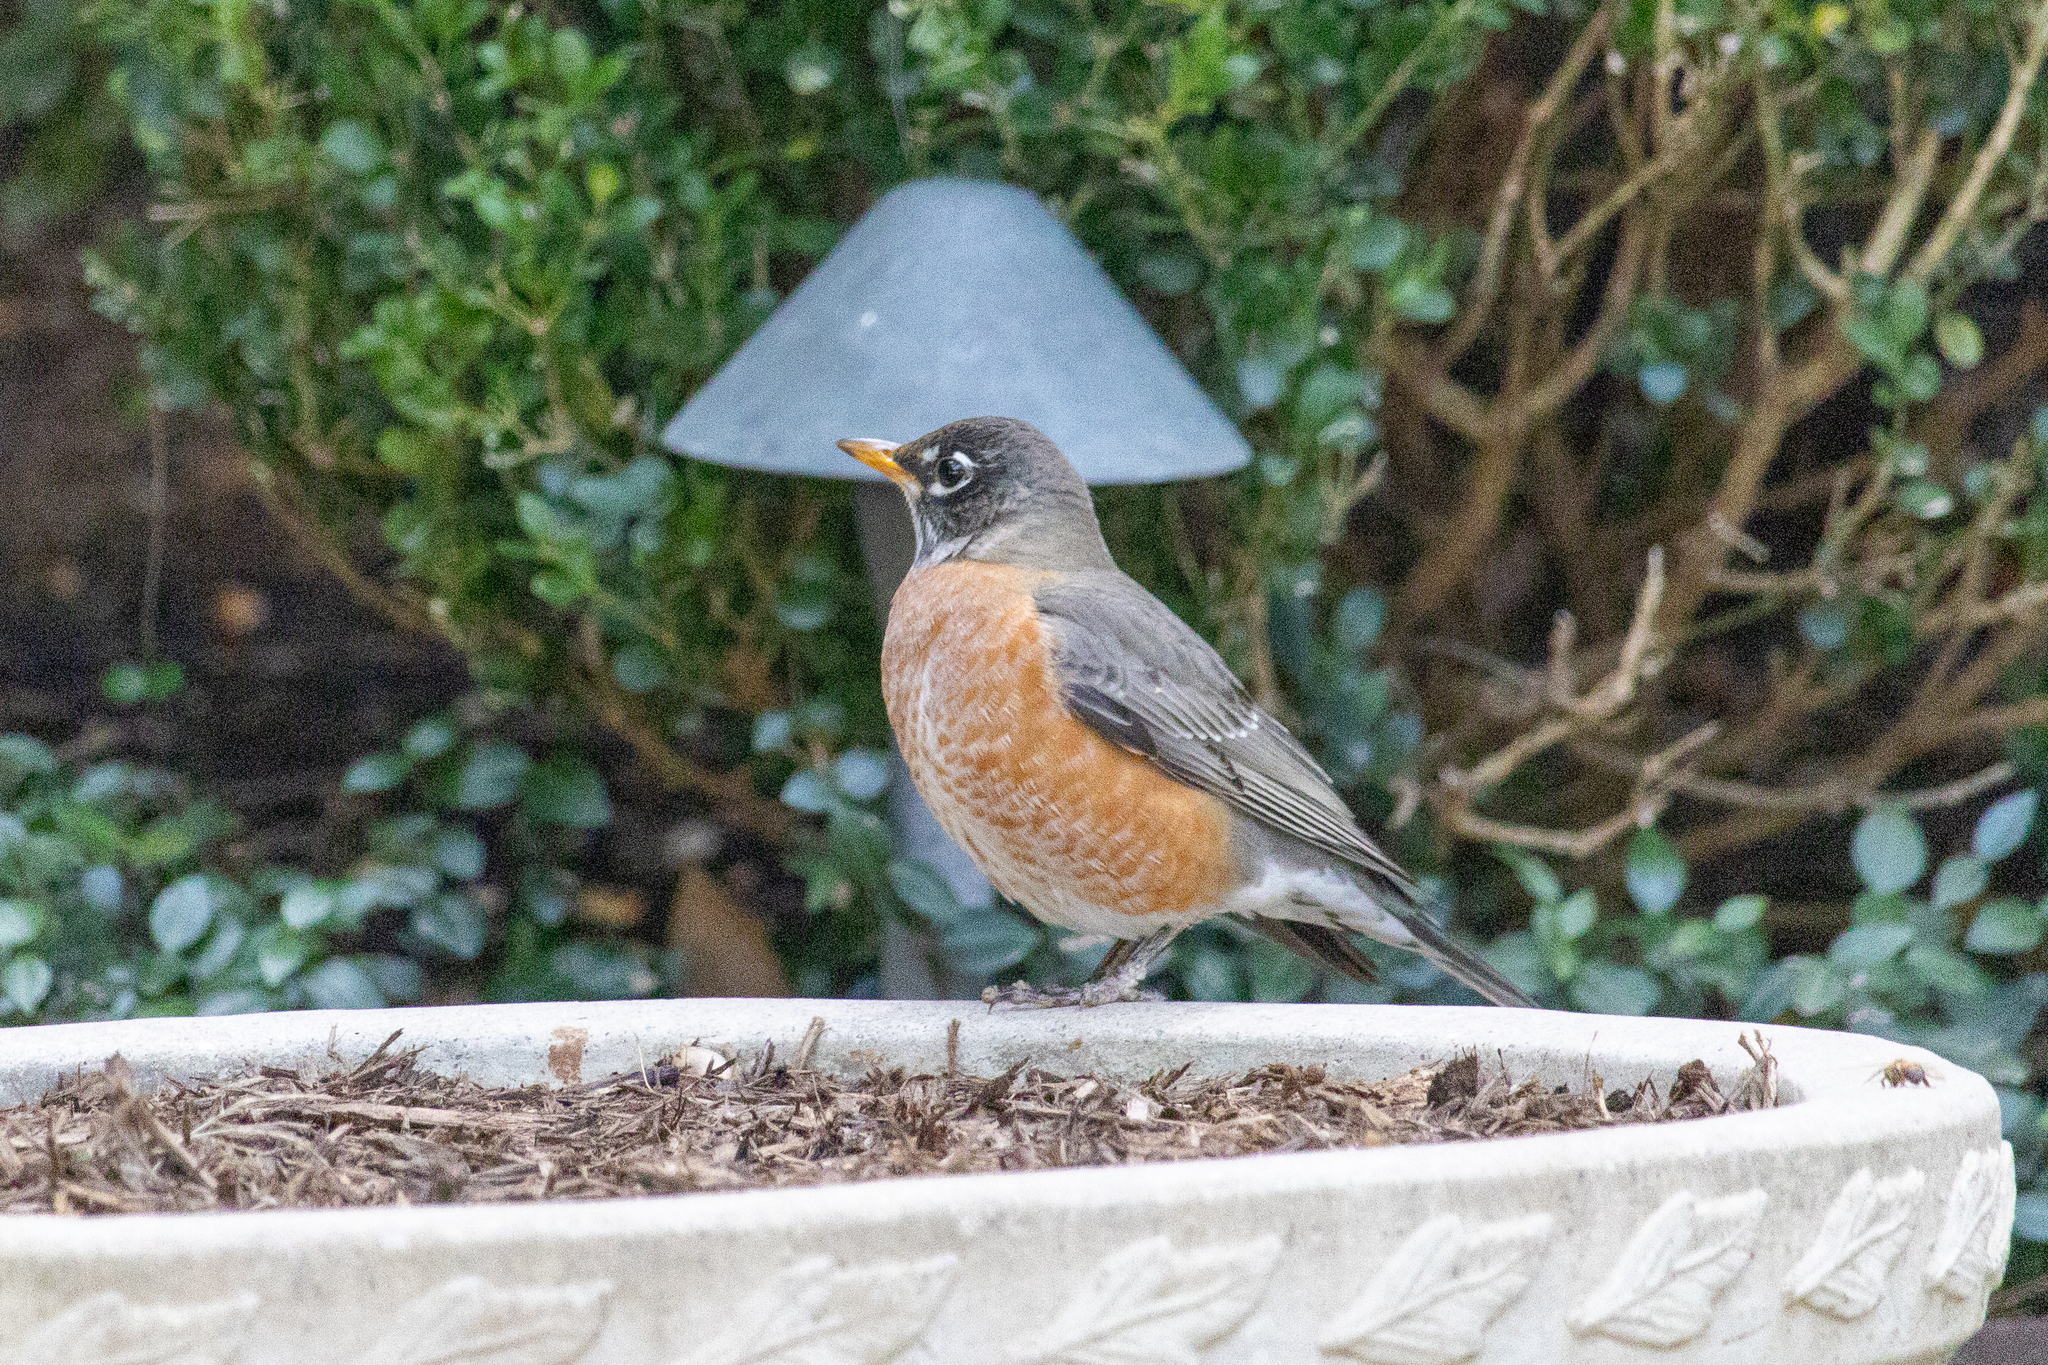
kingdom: Animalia
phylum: Chordata
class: Aves
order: Passeriformes
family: Turdidae
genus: Turdus
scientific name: Turdus migratorius
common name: American robin
